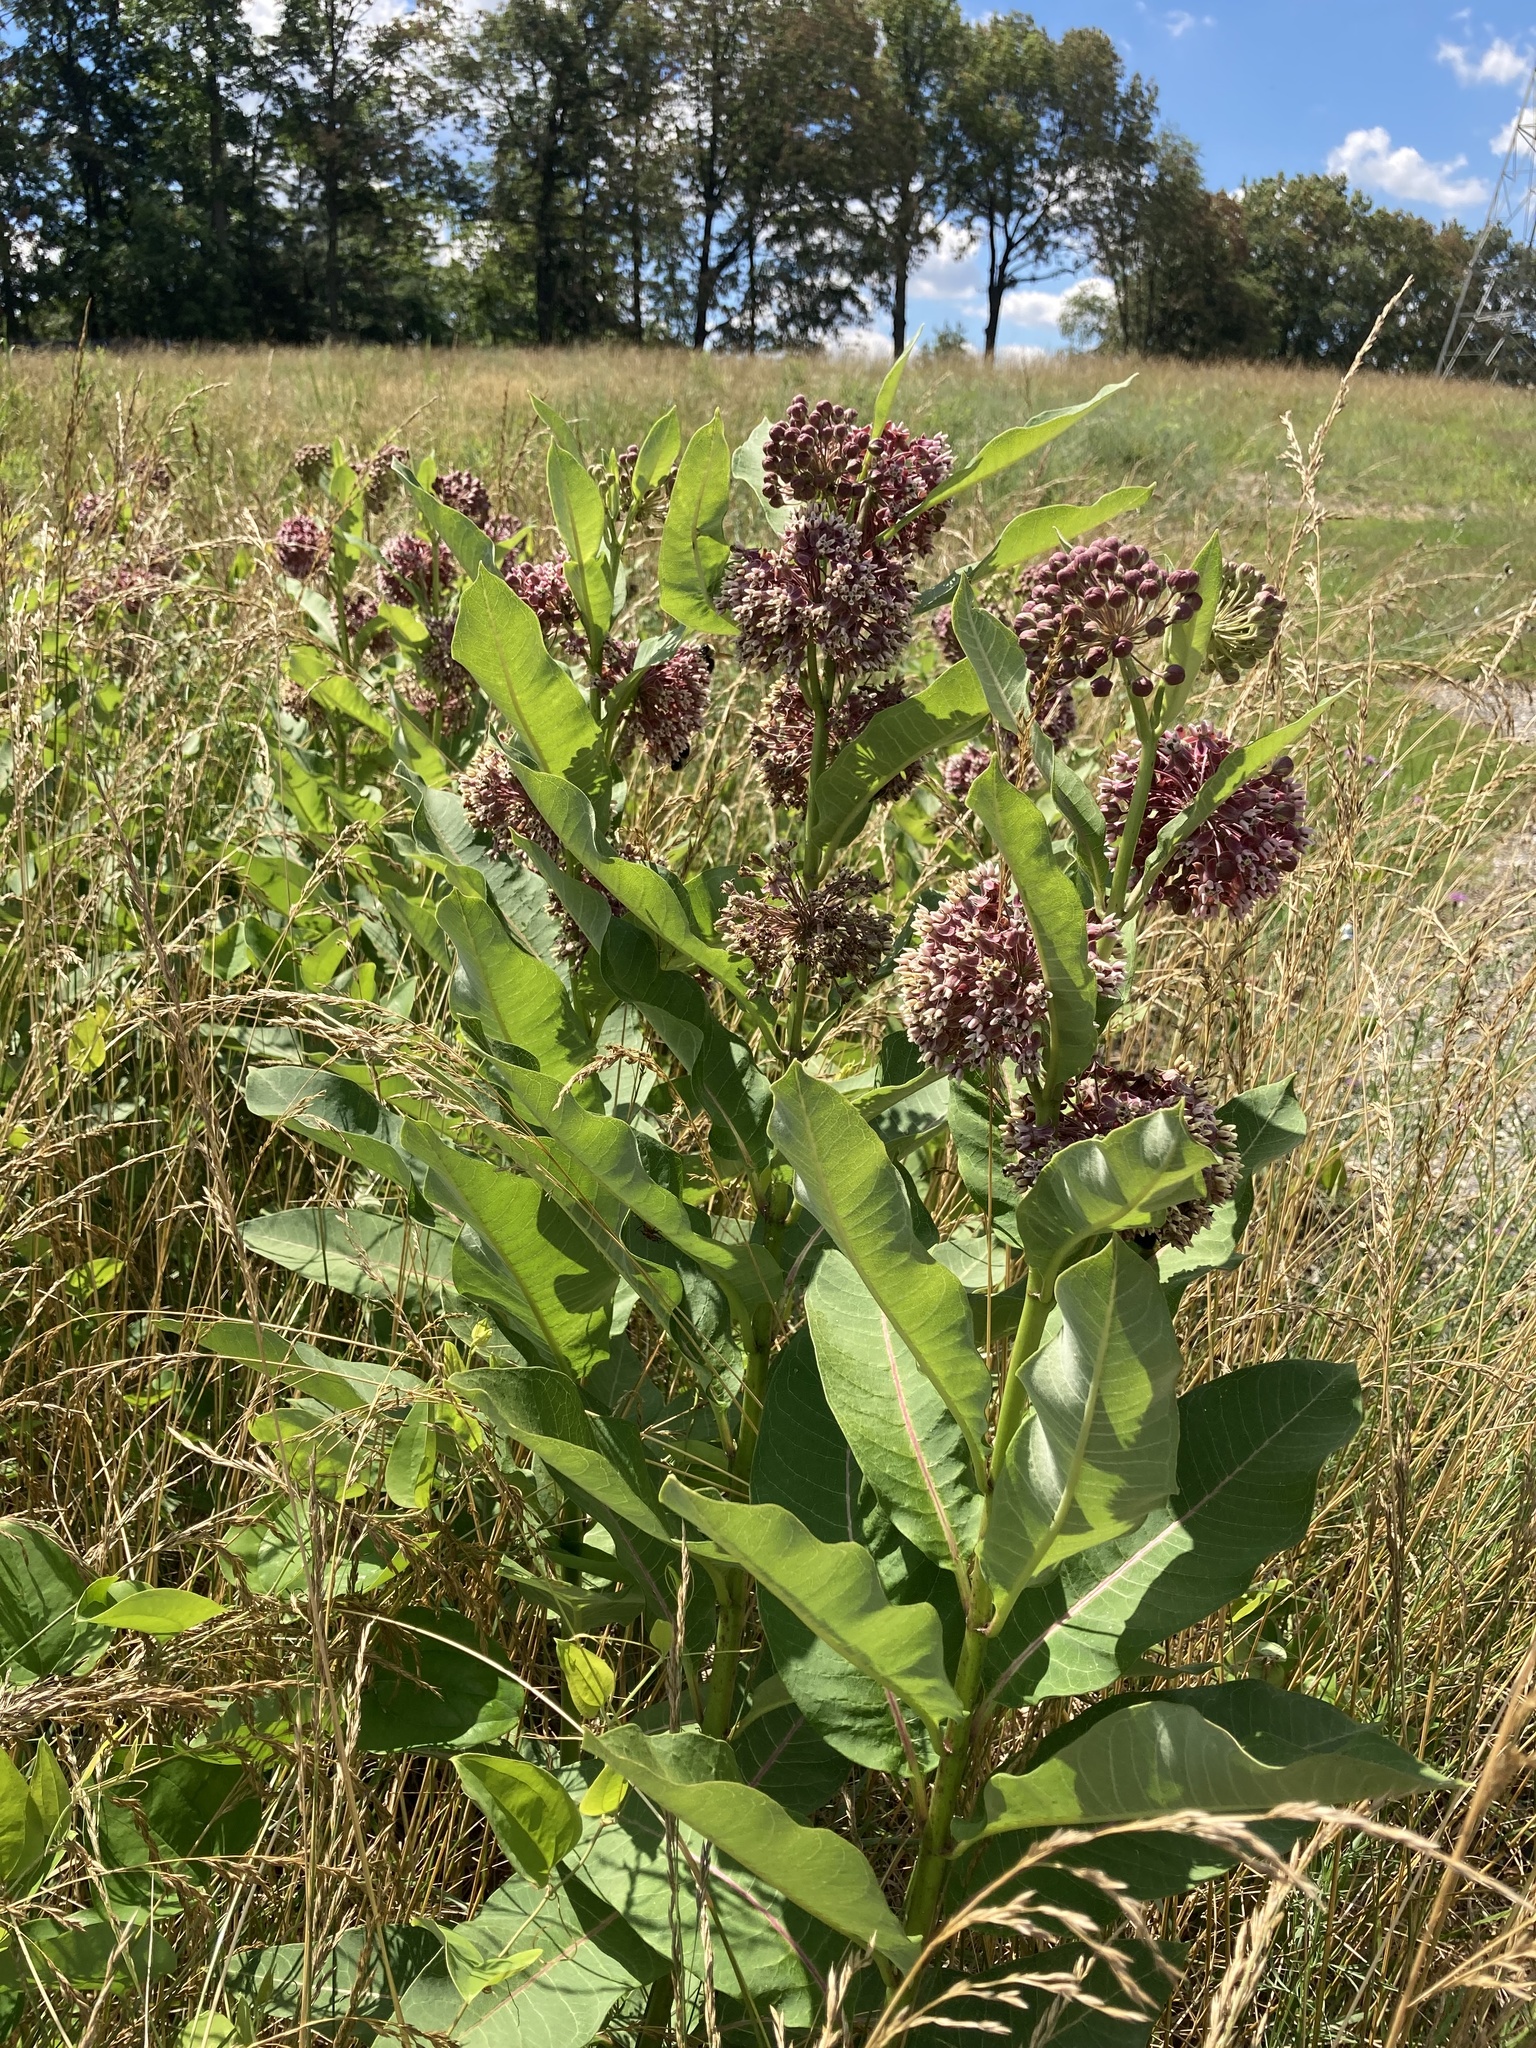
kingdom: Plantae
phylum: Tracheophyta
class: Magnoliopsida
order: Gentianales
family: Apocynaceae
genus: Asclepias
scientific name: Asclepias syriaca
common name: Common milkweed
